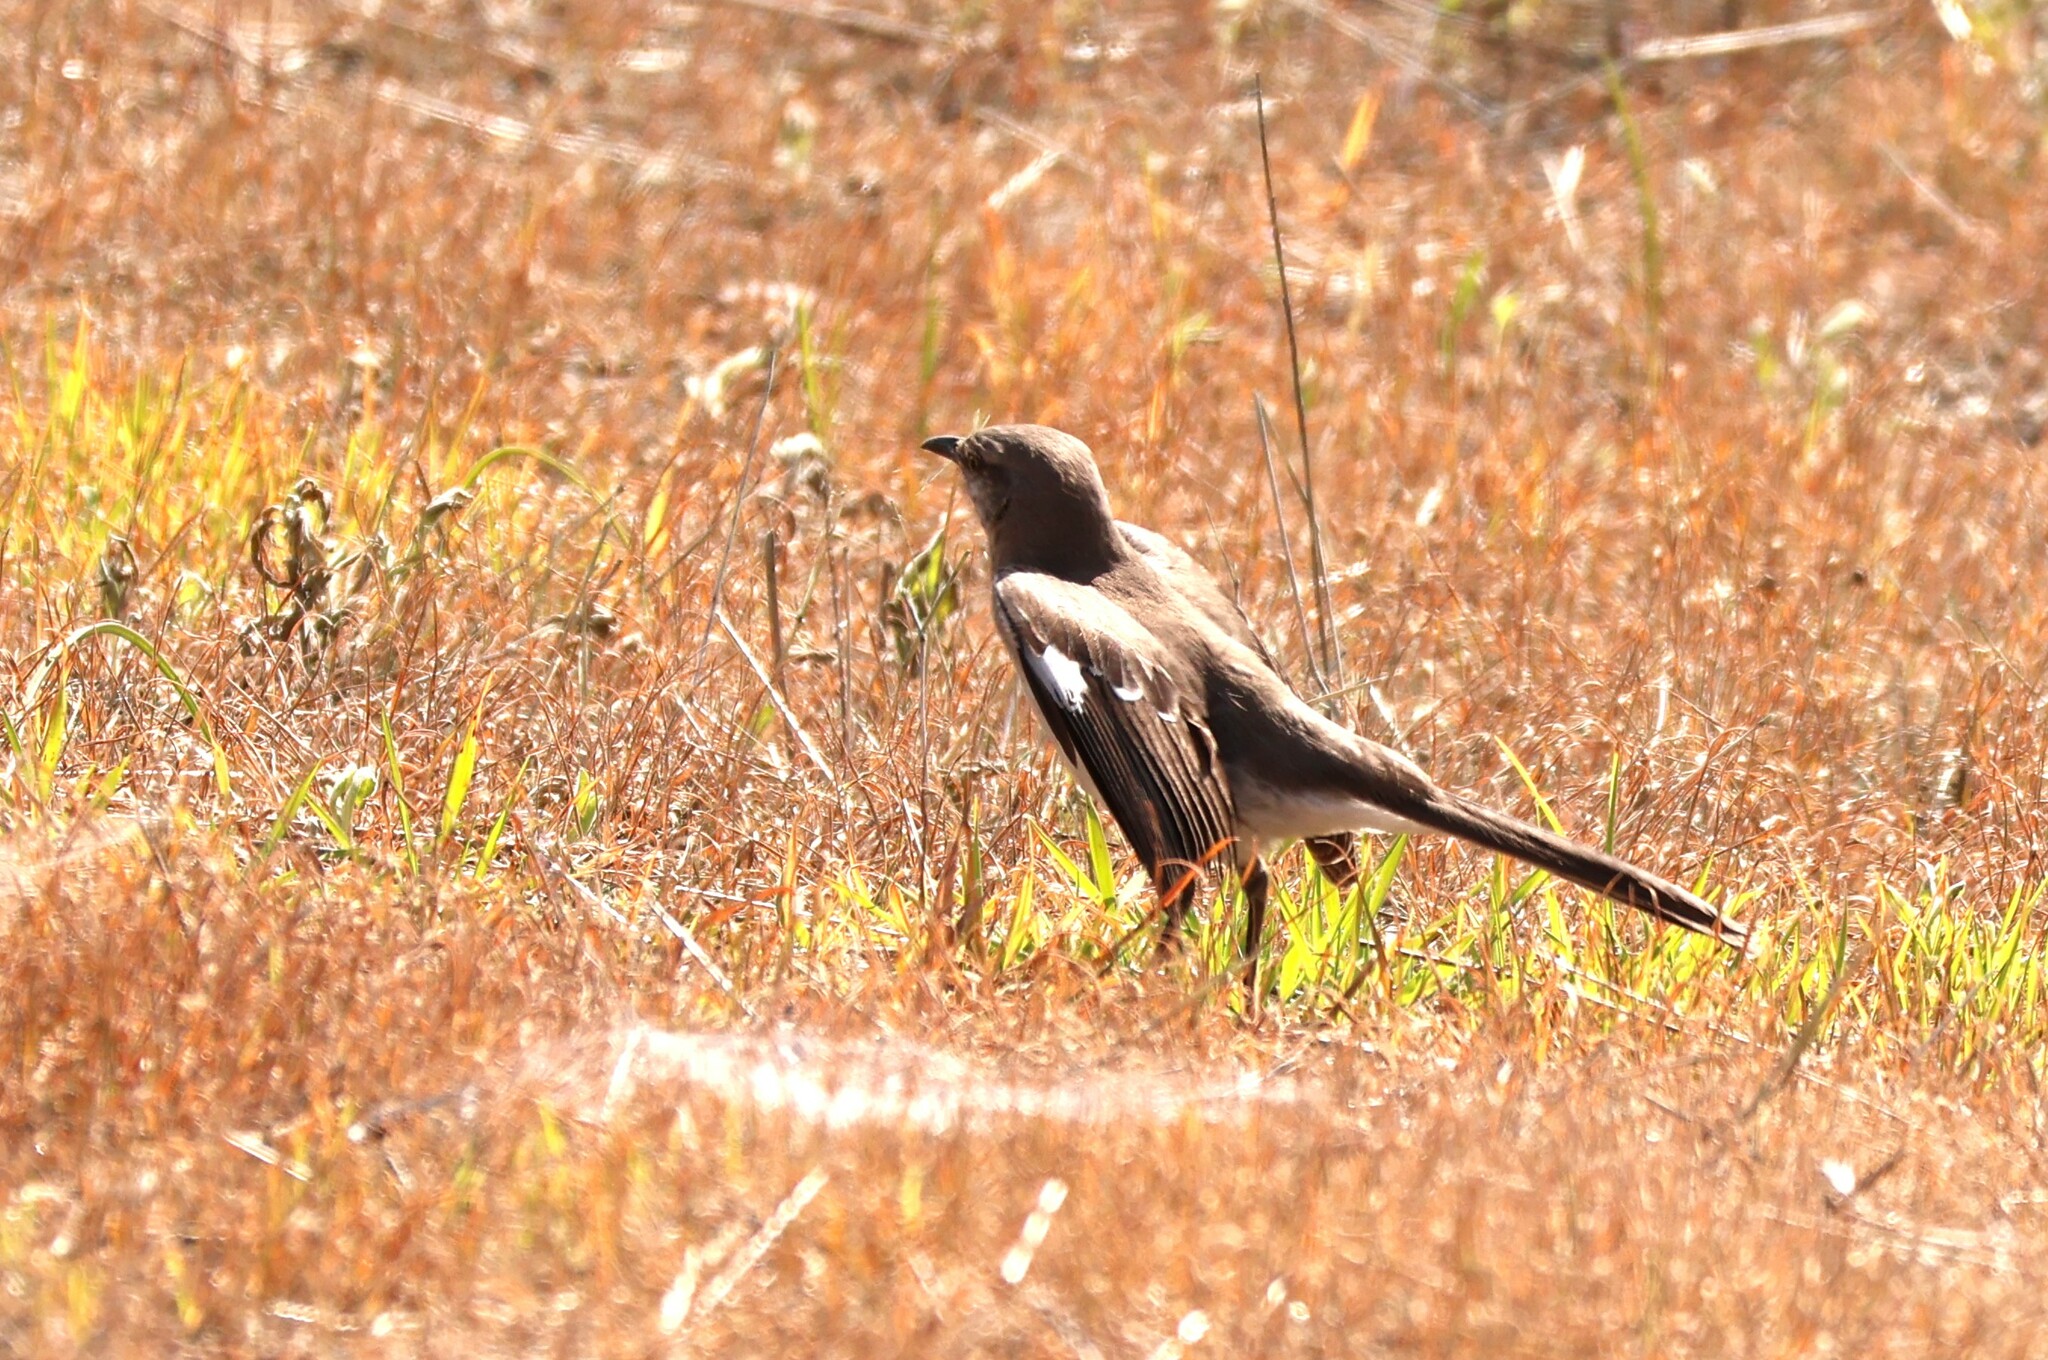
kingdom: Animalia
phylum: Chordata
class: Aves
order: Passeriformes
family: Mimidae
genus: Mimus
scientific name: Mimus polyglottos
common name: Northern mockingbird
